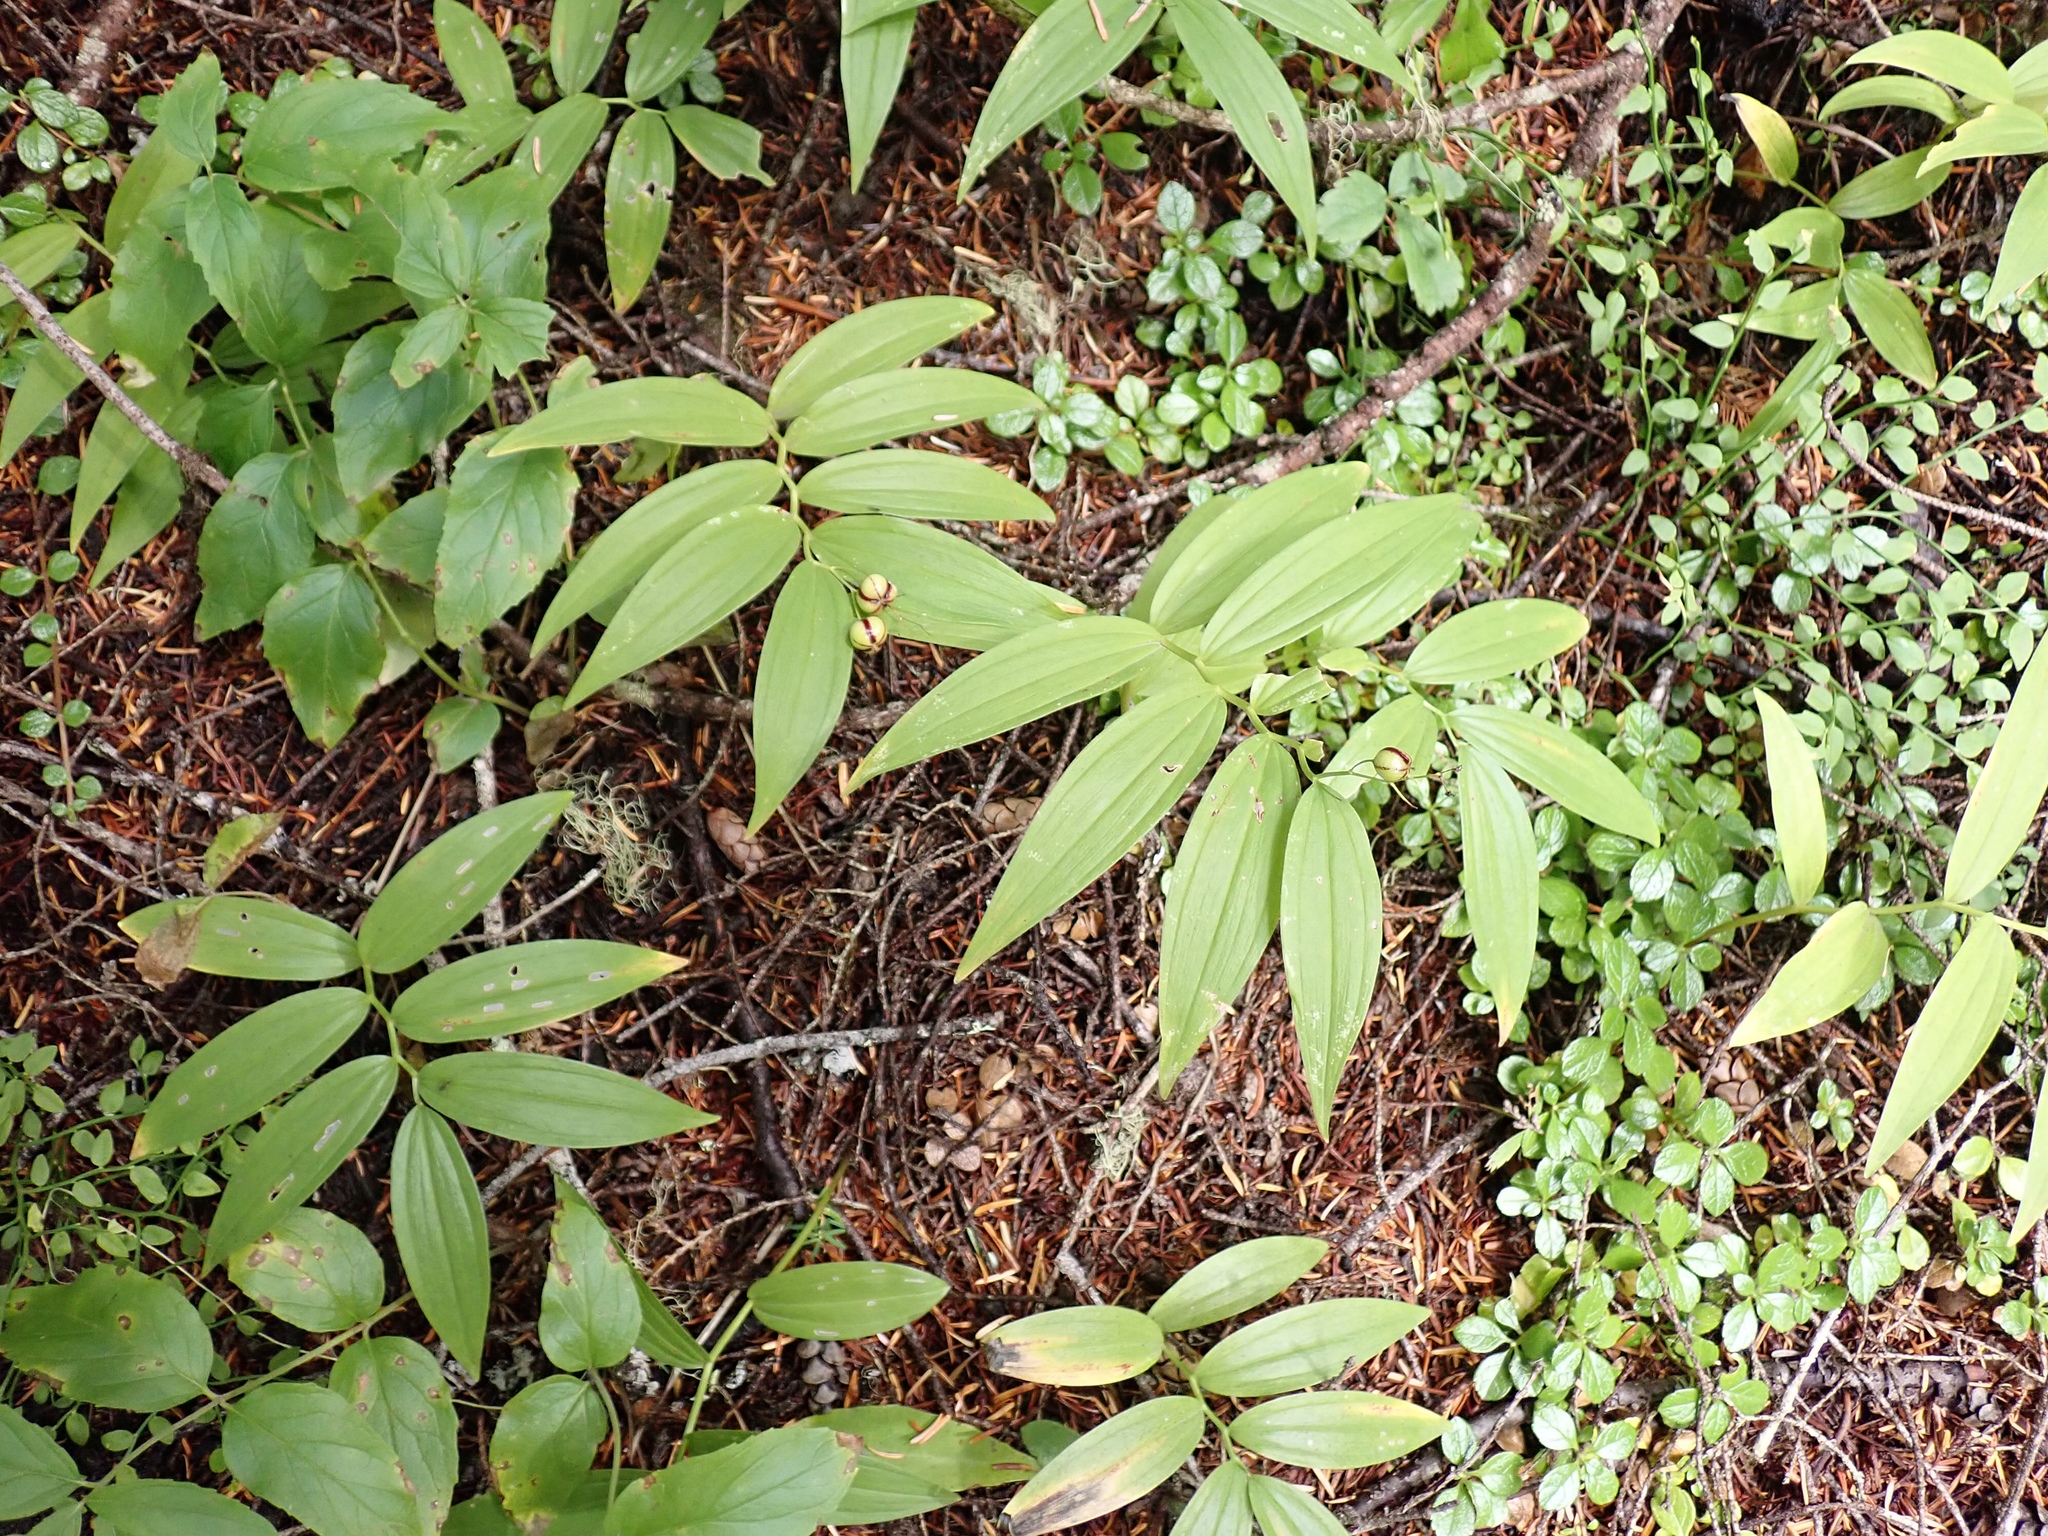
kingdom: Plantae
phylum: Tracheophyta
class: Liliopsida
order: Asparagales
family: Asparagaceae
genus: Maianthemum
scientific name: Maianthemum stellatum
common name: Little false solomon's seal
